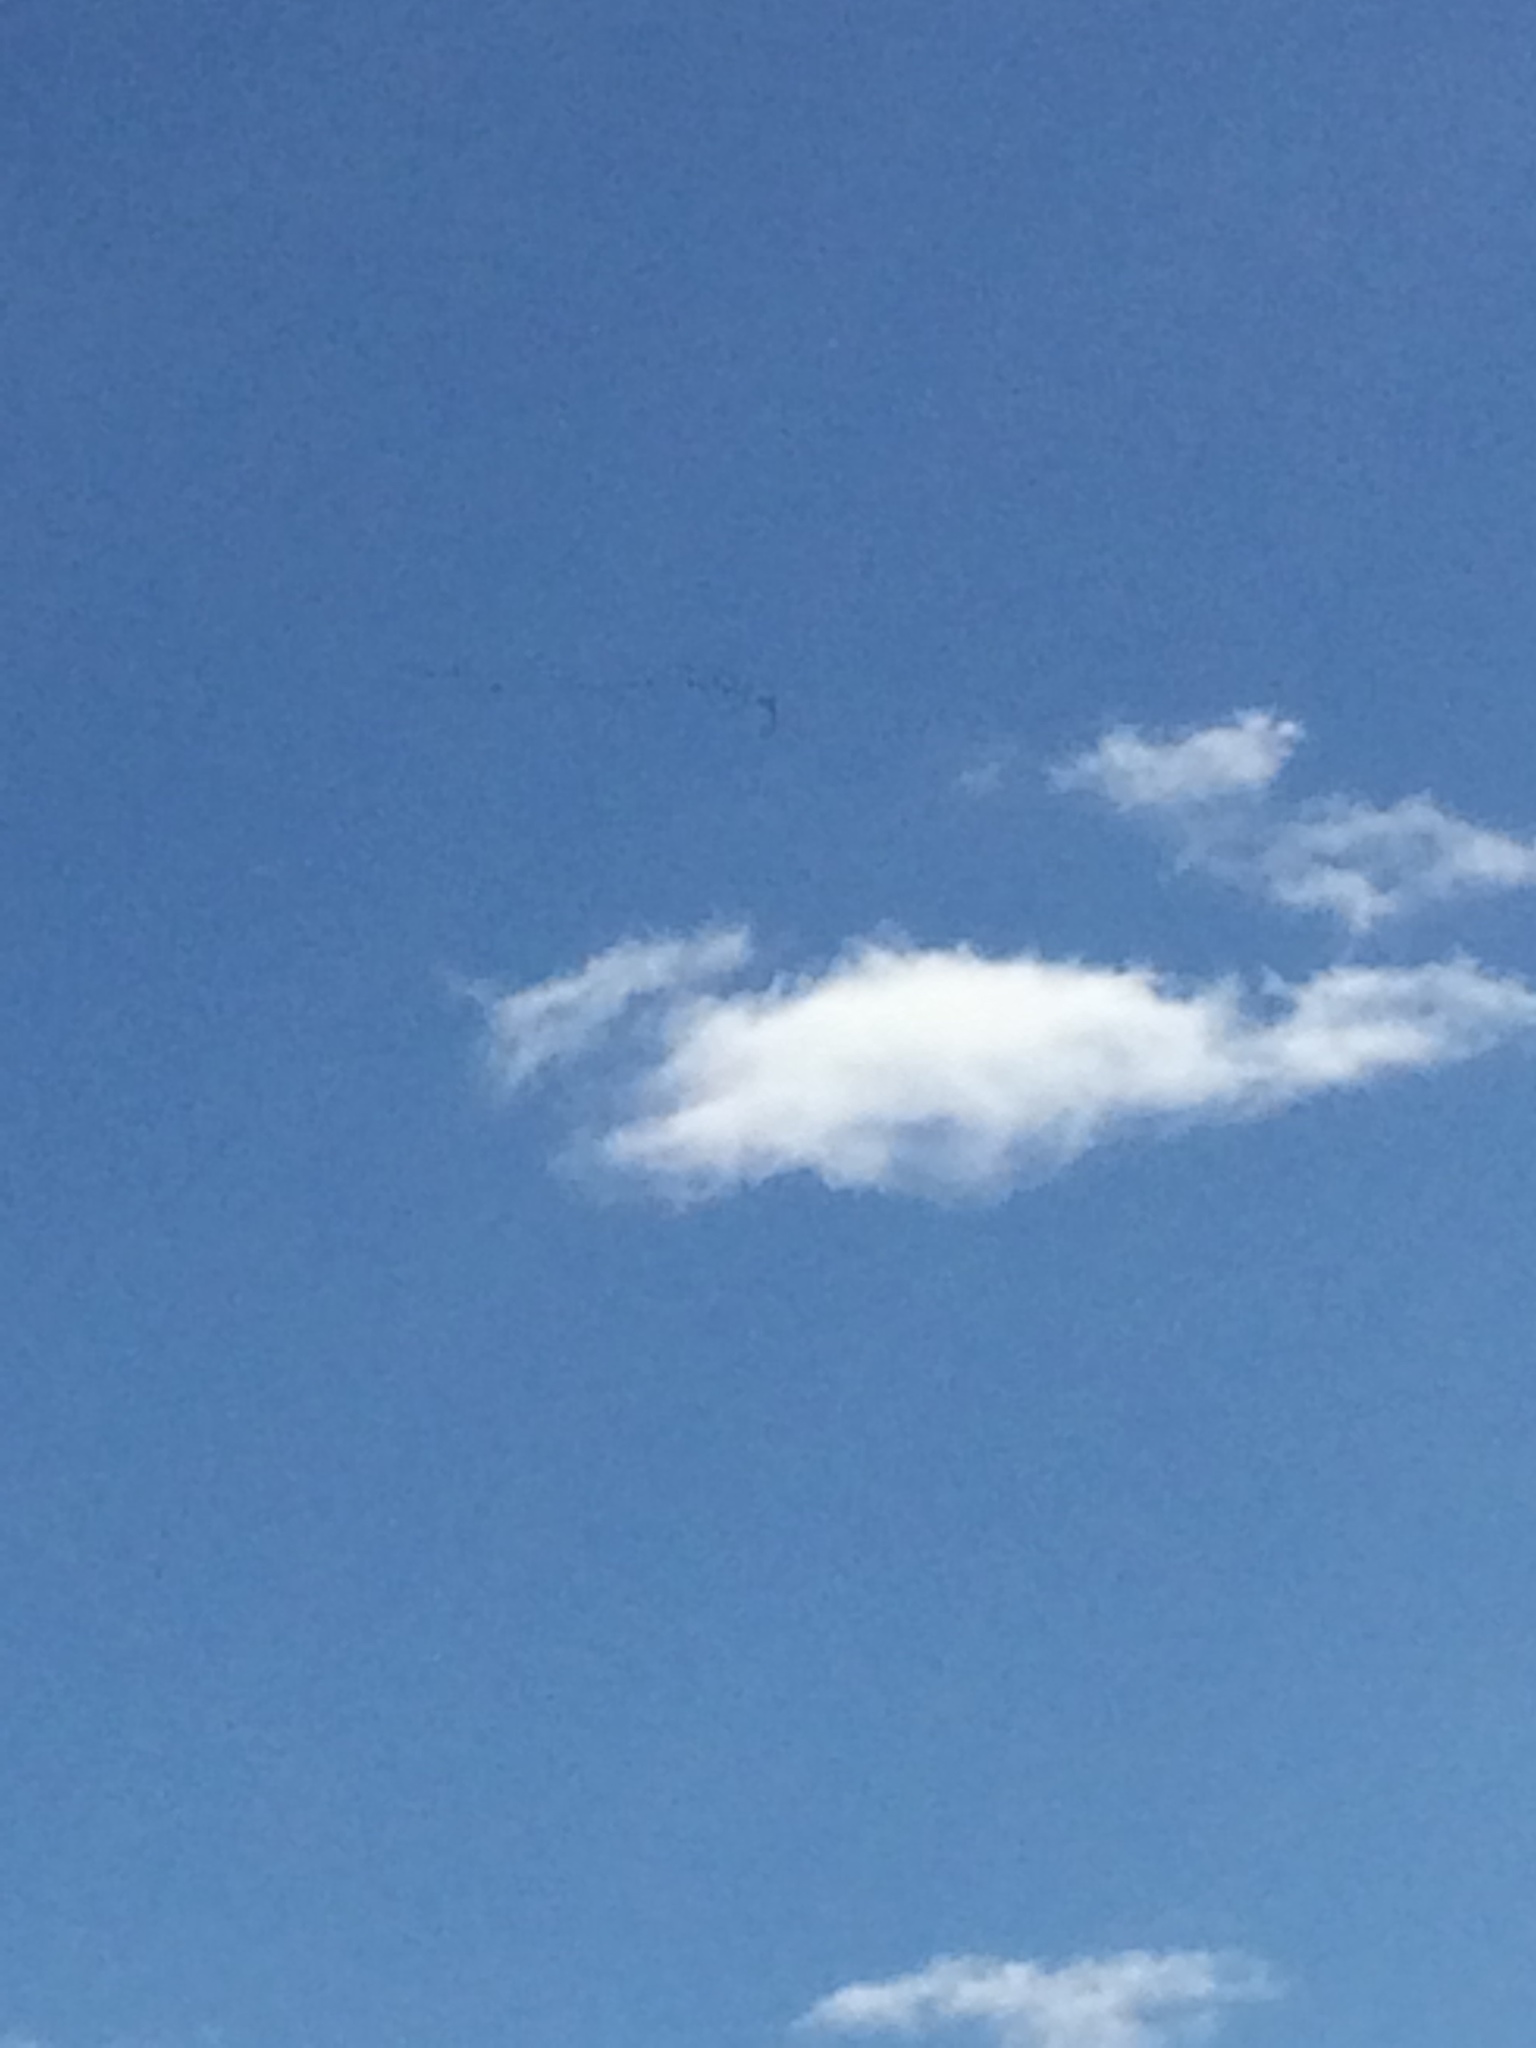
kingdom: Animalia
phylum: Chordata
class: Aves
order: Anseriformes
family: Anatidae
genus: Branta
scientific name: Branta canadensis
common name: Canada goose
